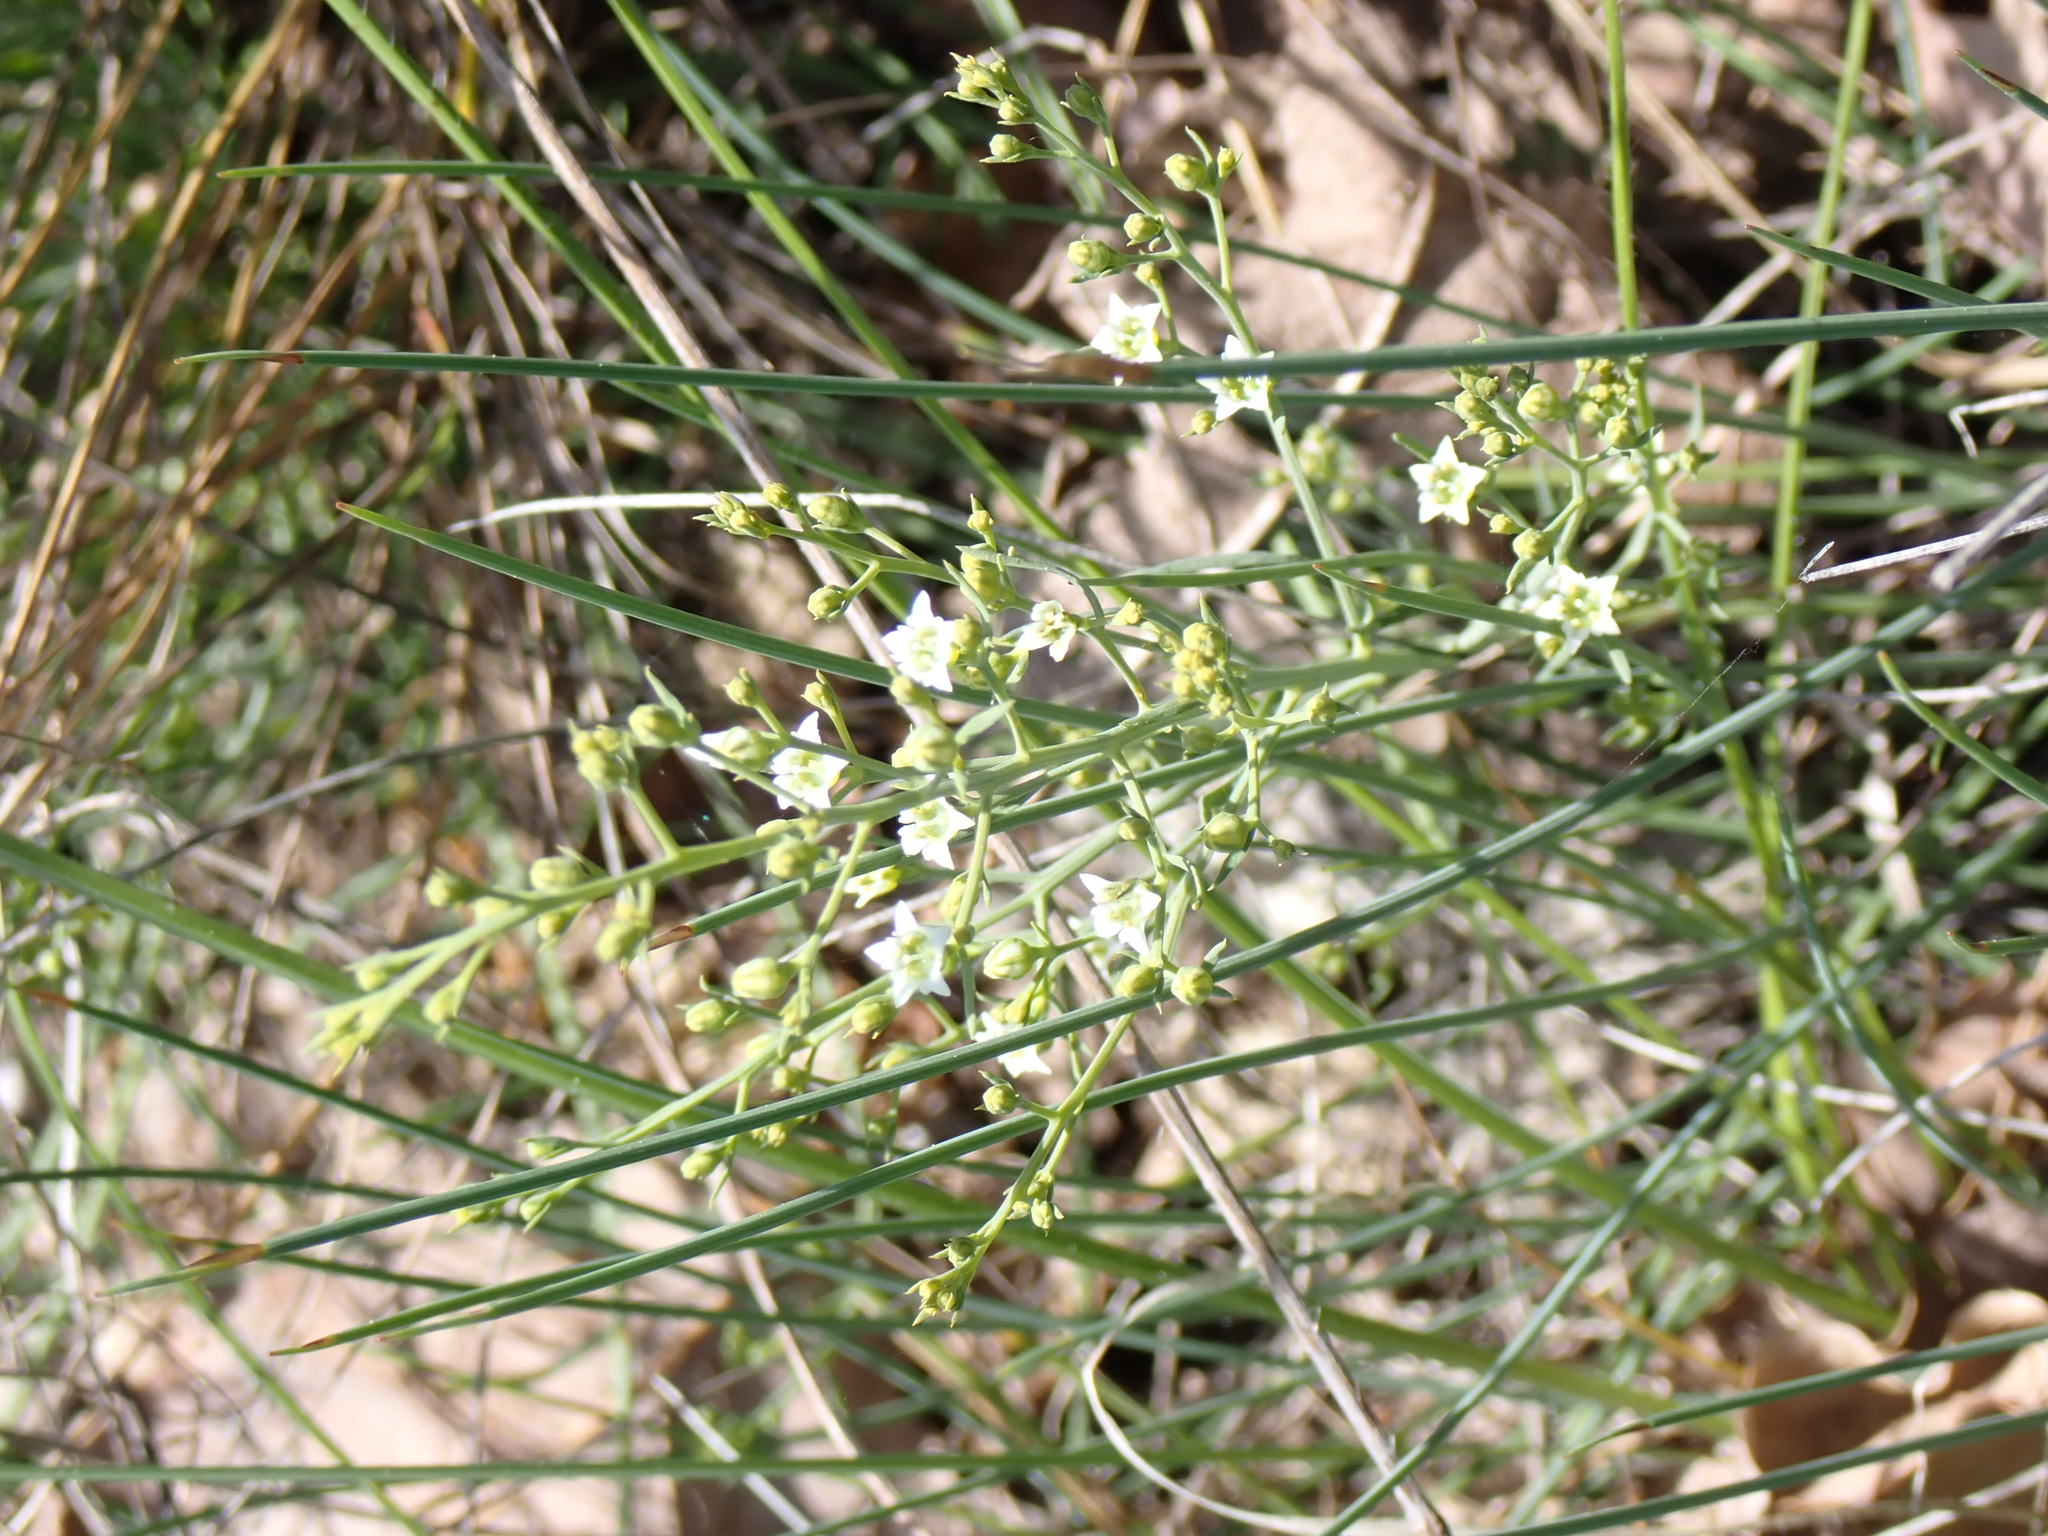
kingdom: Plantae
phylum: Tracheophyta
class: Magnoliopsida
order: Santalales
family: Thesiaceae
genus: Thesium
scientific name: Thesium divaricatum
